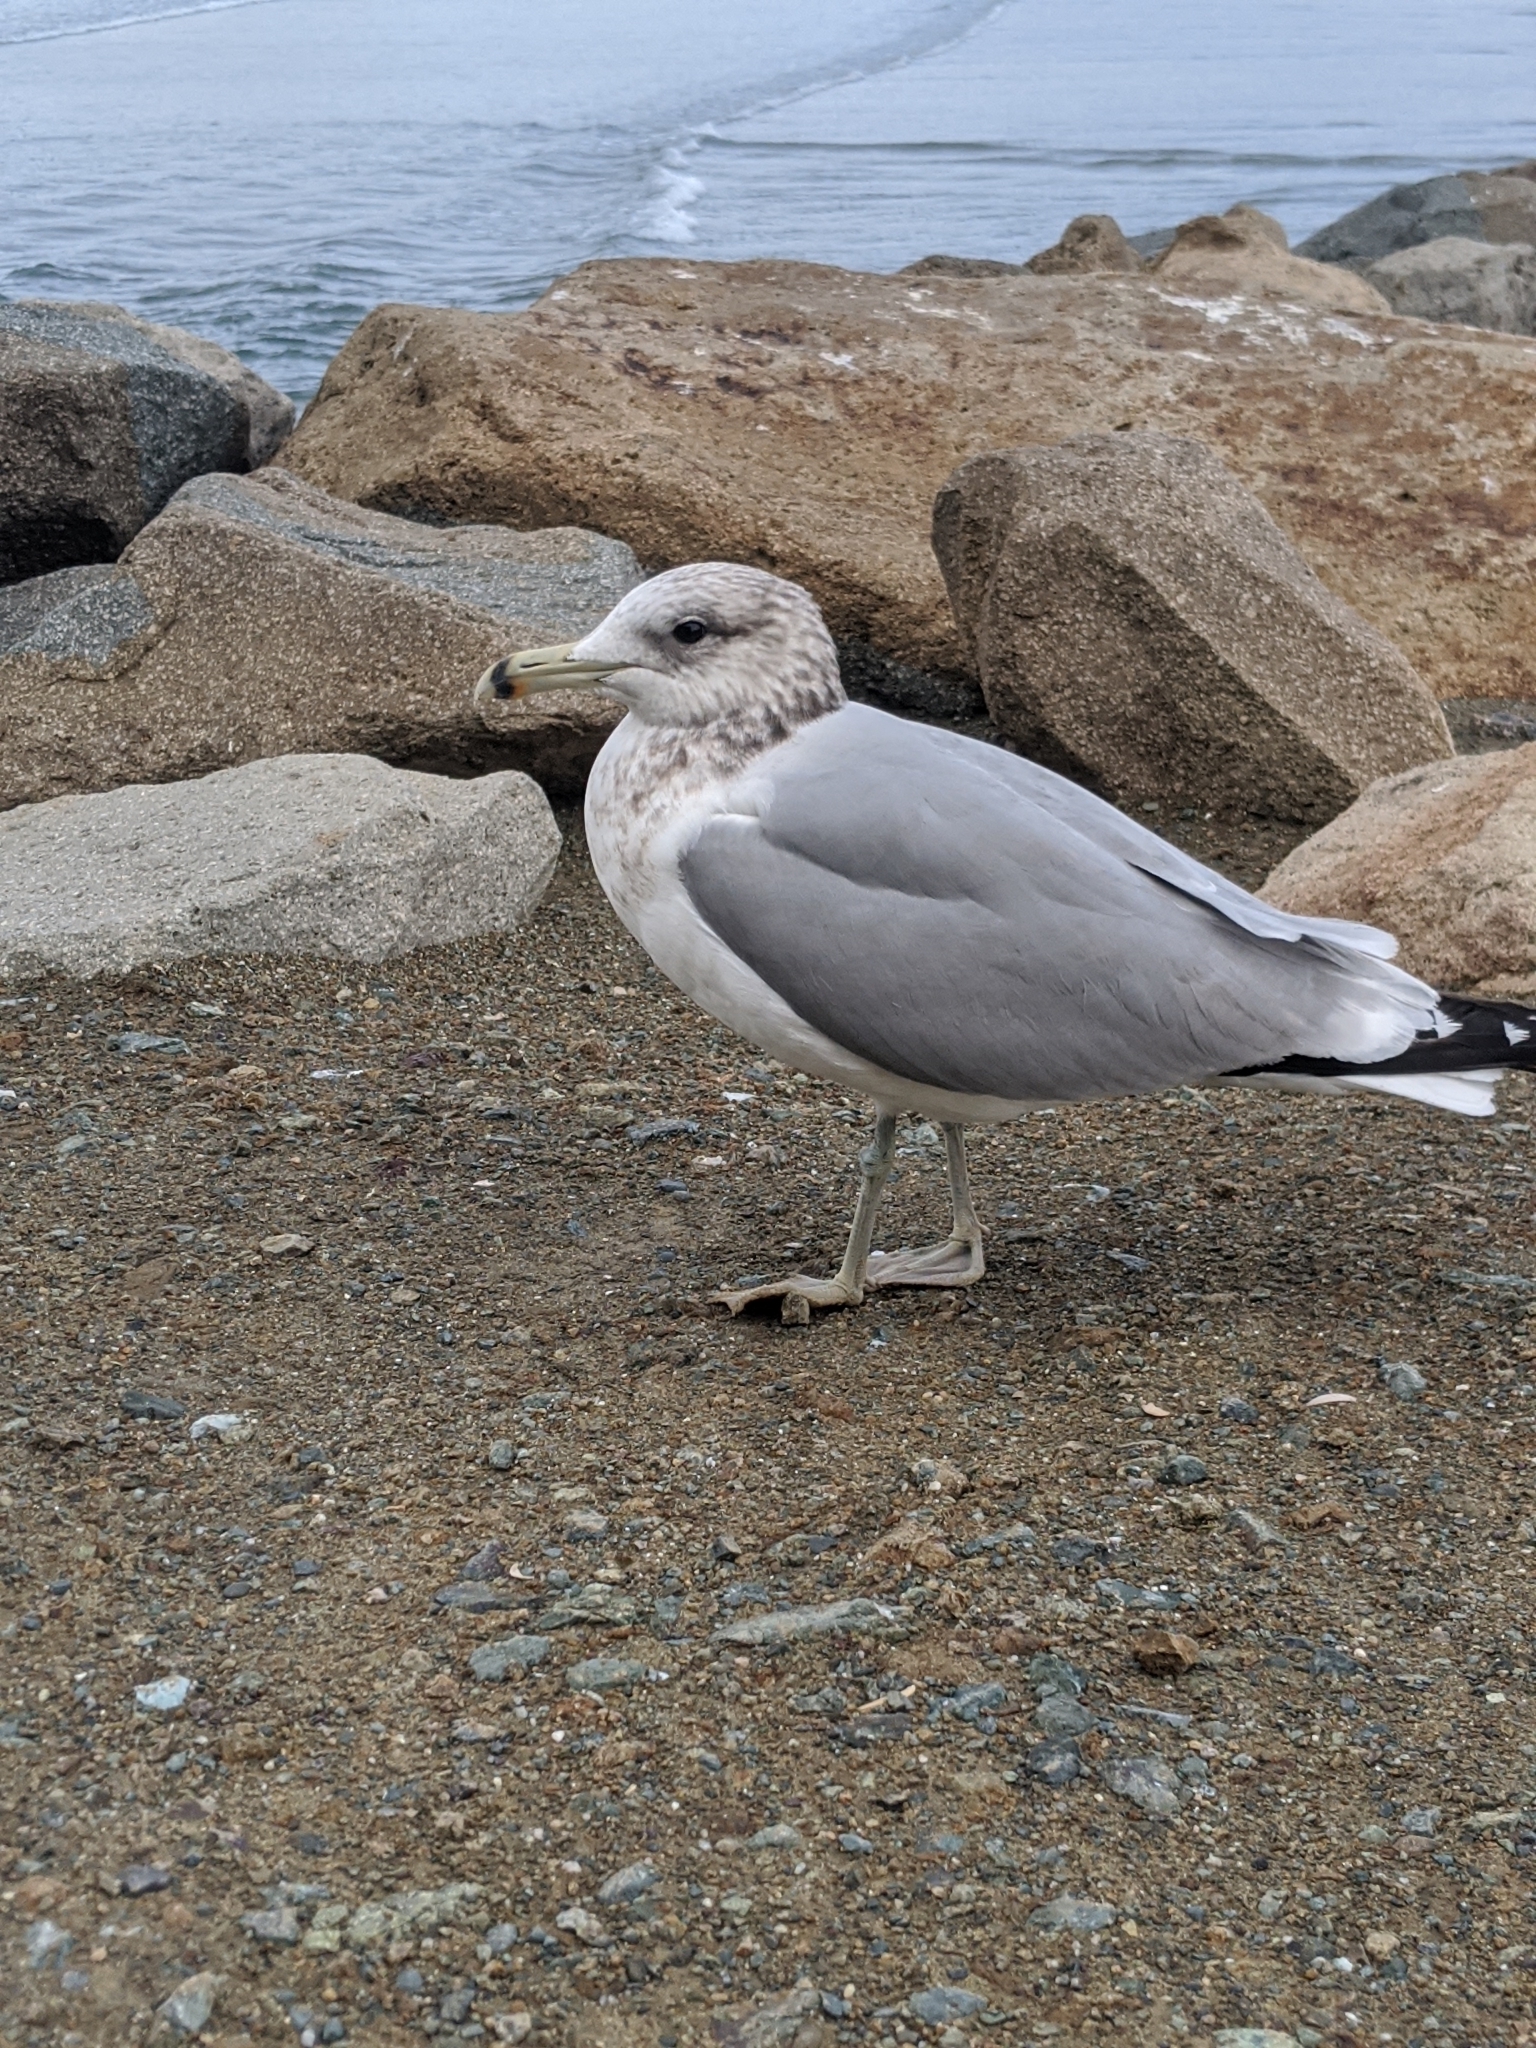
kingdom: Animalia
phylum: Chordata
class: Aves
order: Charadriiformes
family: Laridae
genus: Larus
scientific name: Larus delawarensis
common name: Ring-billed gull
